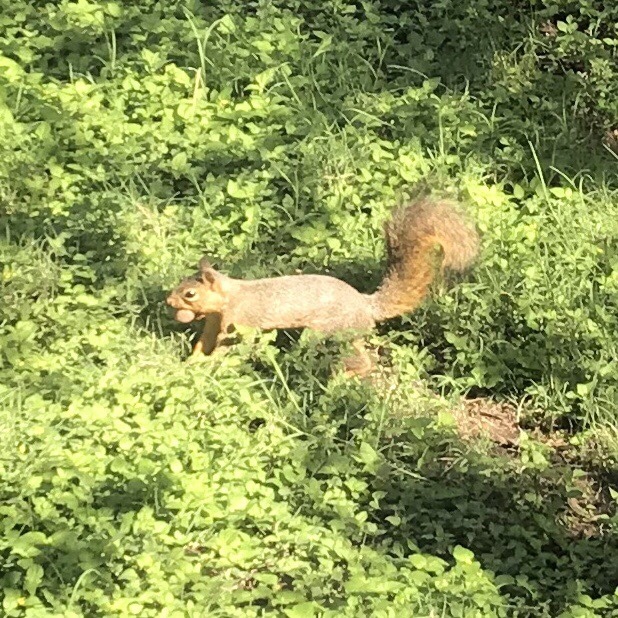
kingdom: Animalia
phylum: Chordata
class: Mammalia
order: Rodentia
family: Sciuridae
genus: Sciurus
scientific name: Sciurus niger
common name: Fox squirrel
